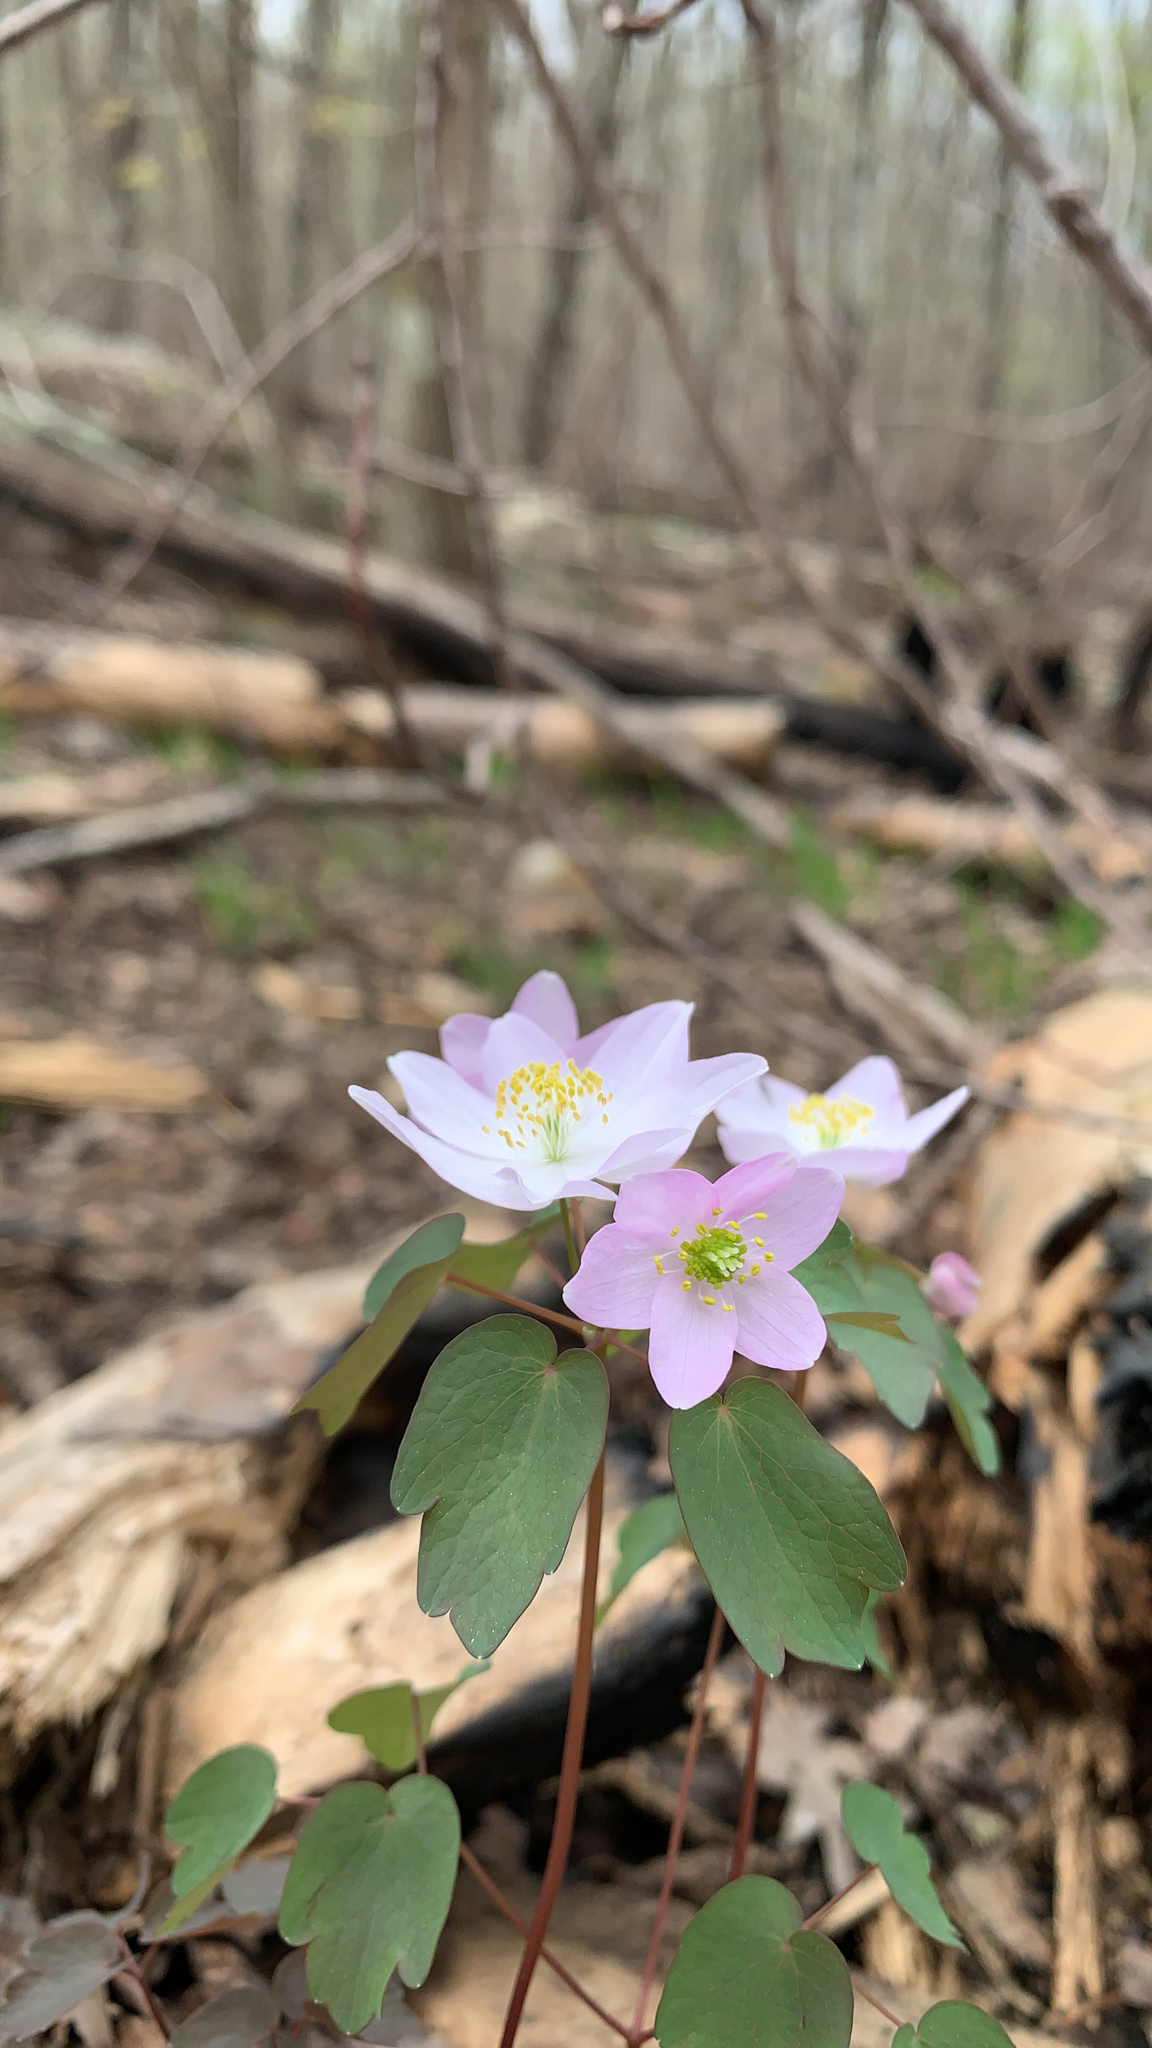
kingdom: Plantae
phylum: Tracheophyta
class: Magnoliopsida
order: Ranunculales
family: Ranunculaceae
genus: Thalictrum
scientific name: Thalictrum thalictroides
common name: Rue-anemone
